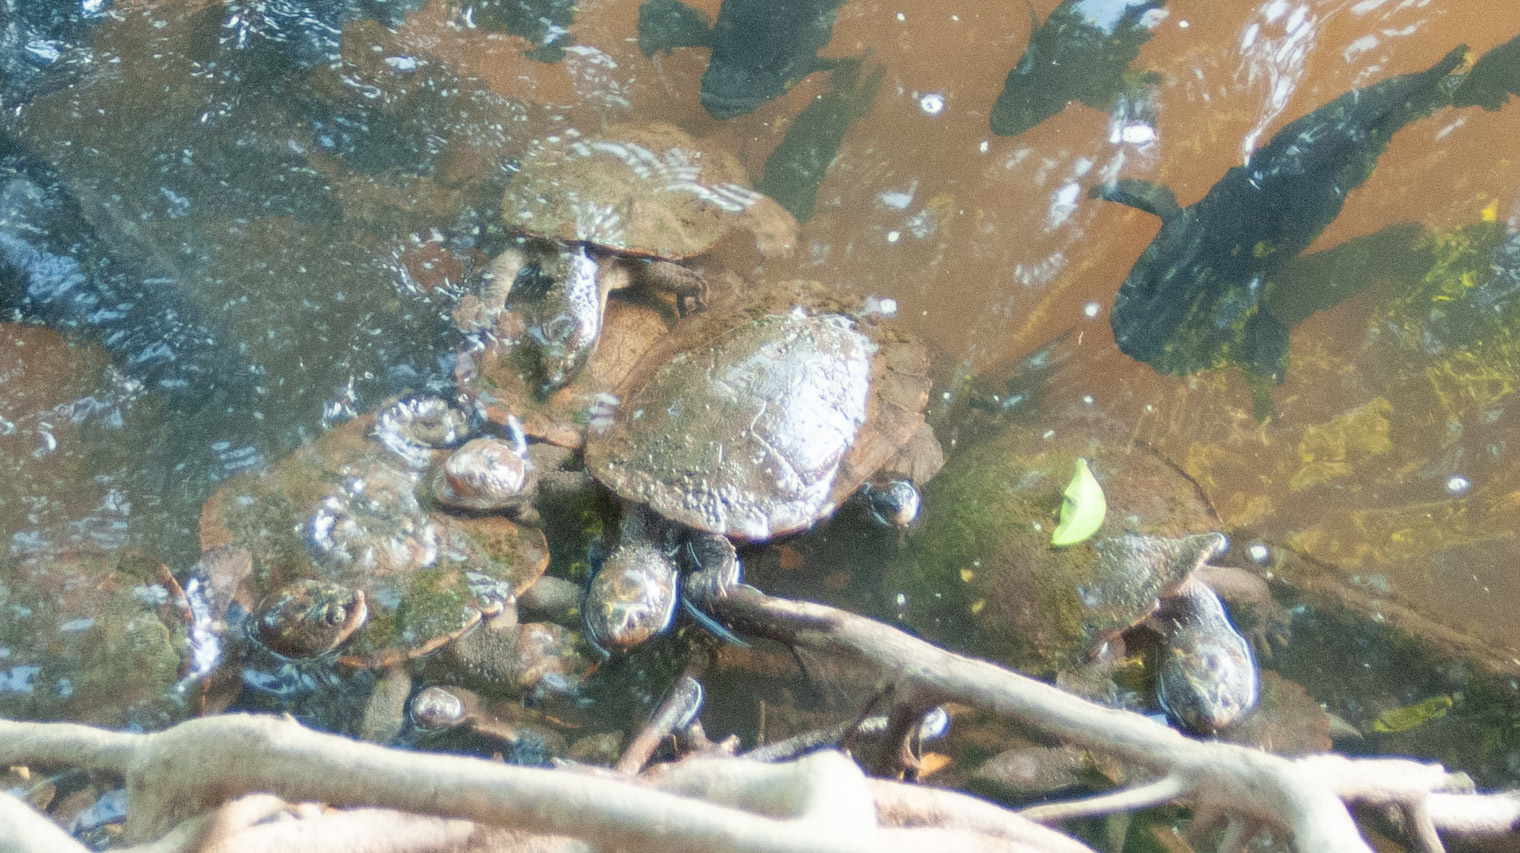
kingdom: Animalia
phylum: Chordata
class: Testudines
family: Chelidae
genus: Myuchelys
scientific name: Myuchelys latisternum
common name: Serrated snapping turtle
